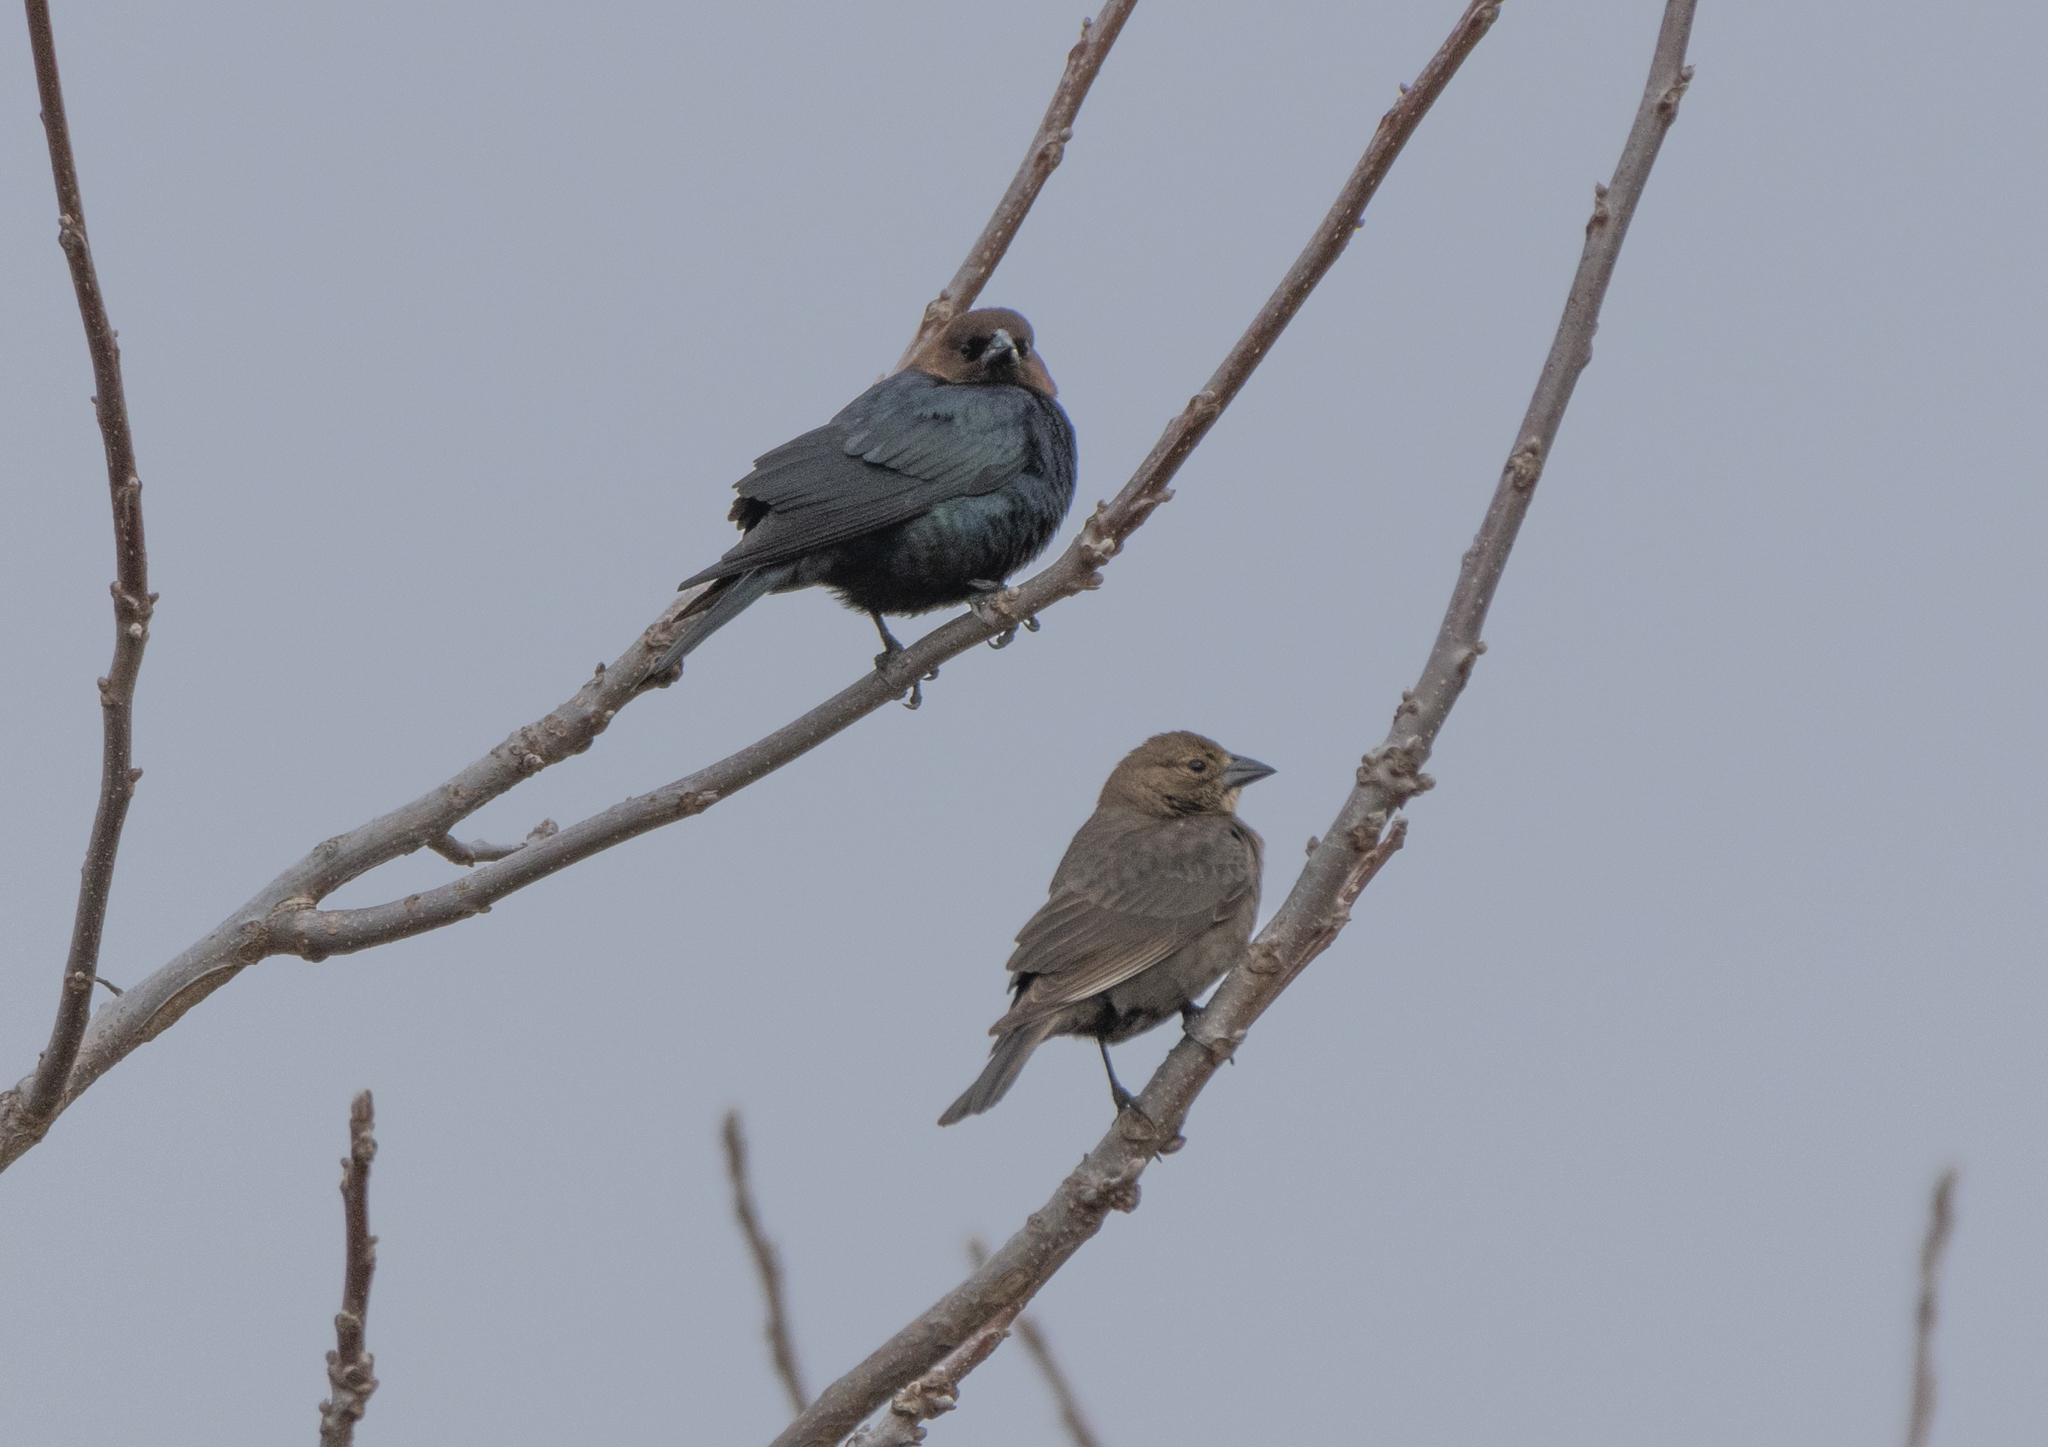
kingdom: Animalia
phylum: Chordata
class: Aves
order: Passeriformes
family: Icteridae
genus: Molothrus
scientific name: Molothrus ater
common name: Brown-headed cowbird
